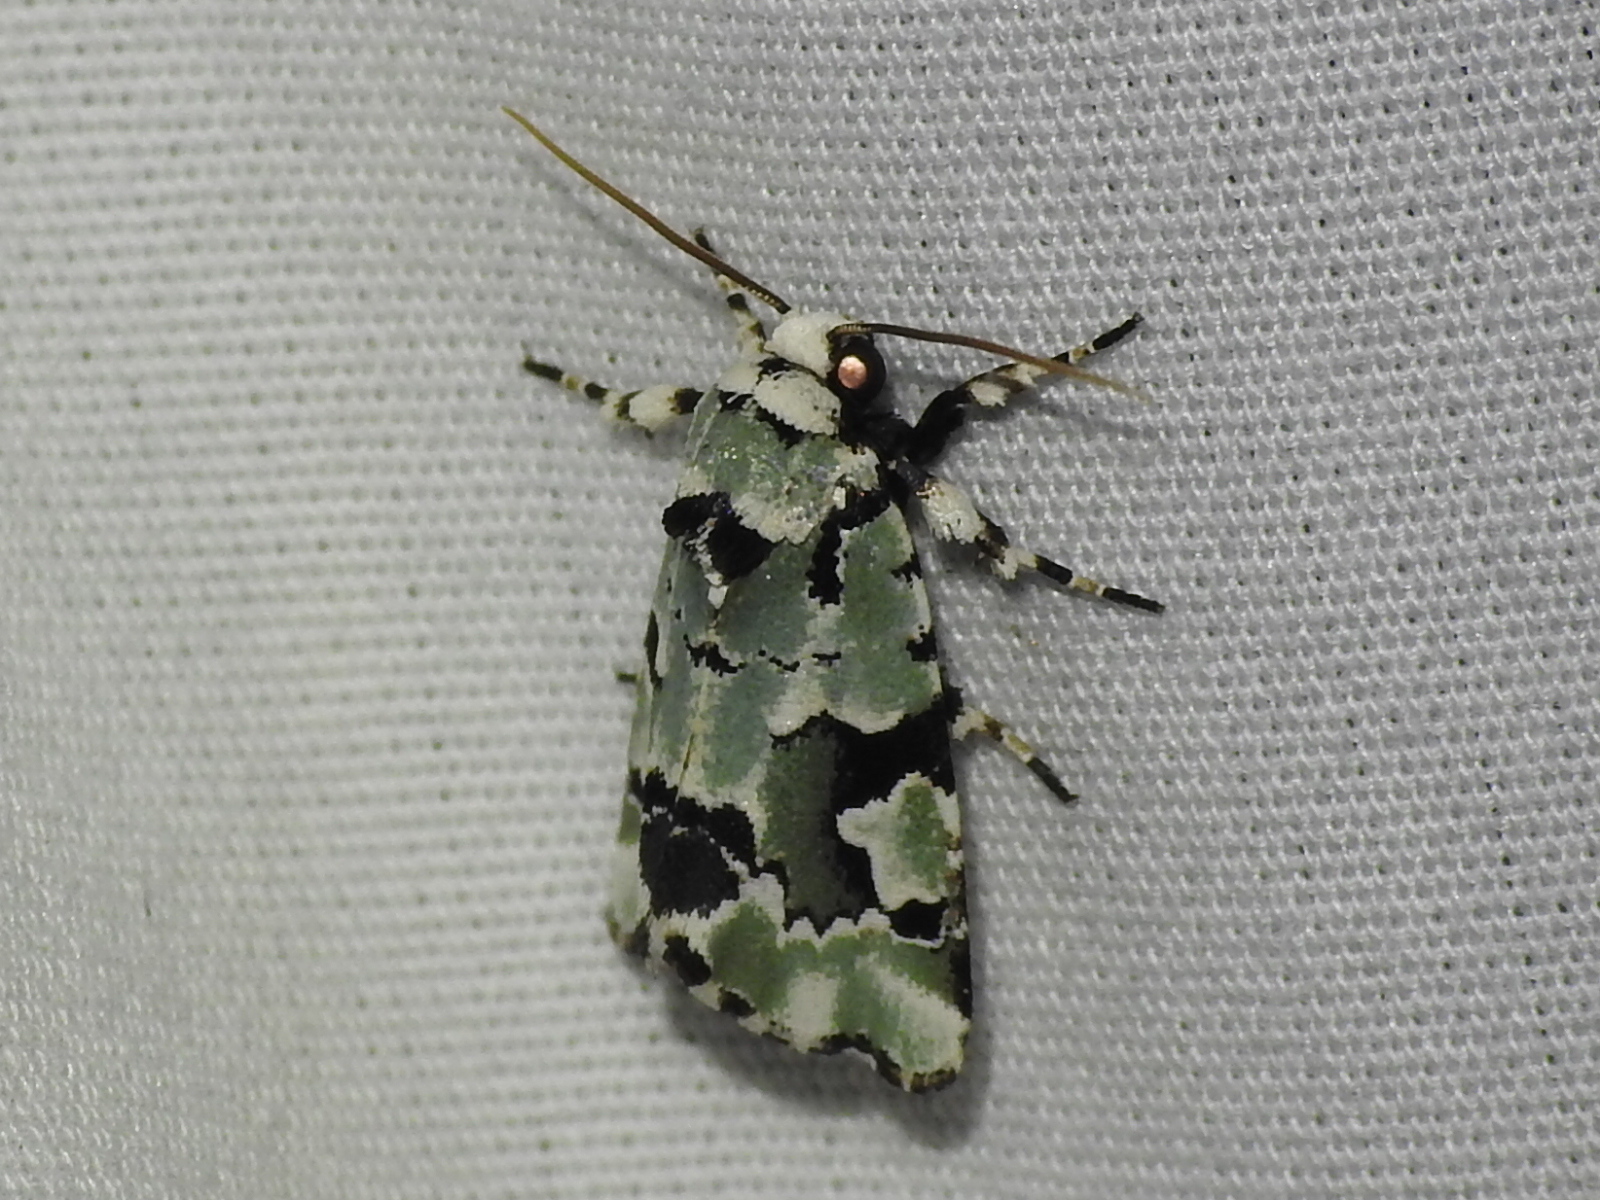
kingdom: Animalia
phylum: Arthropoda
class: Insecta
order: Lepidoptera
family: Noctuidae
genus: Emarginea
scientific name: Emarginea percara
